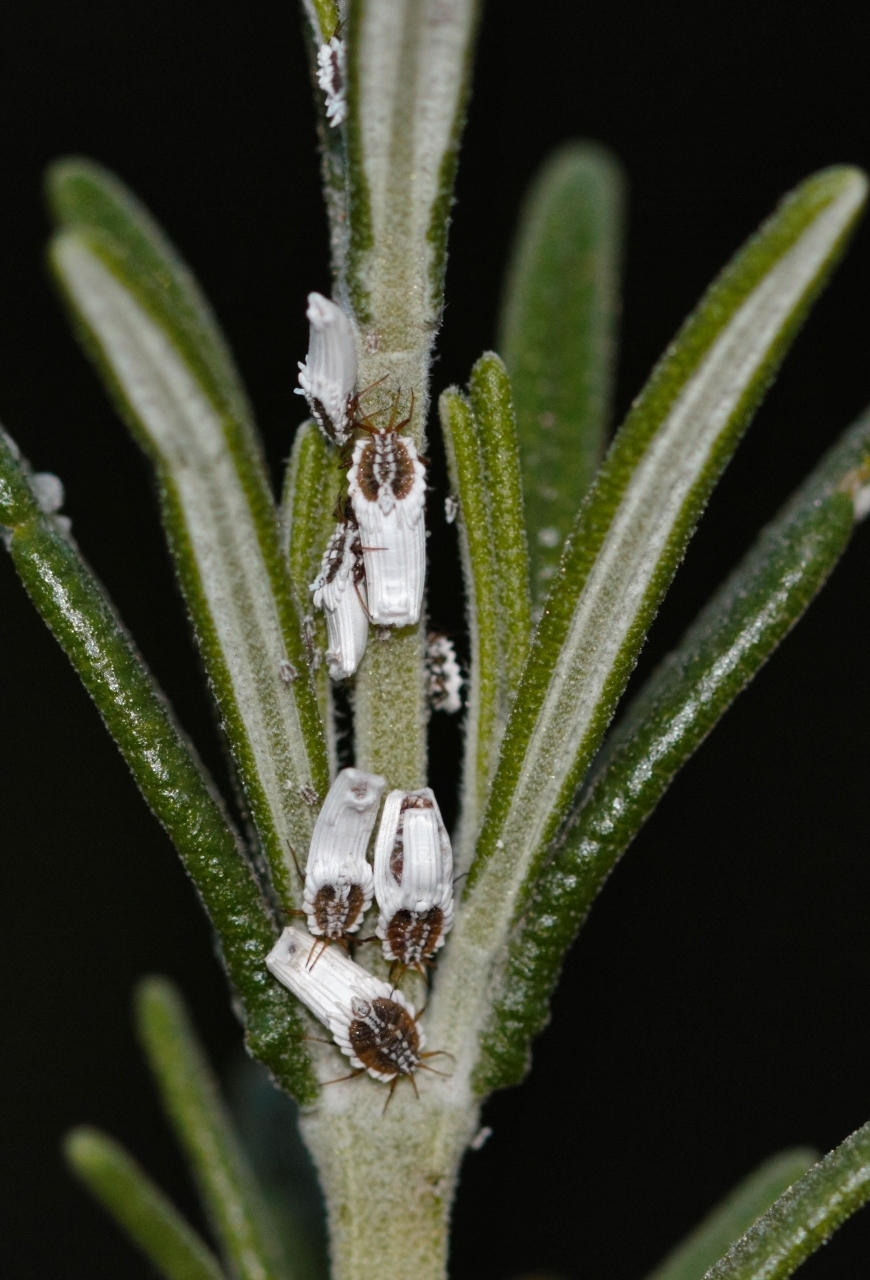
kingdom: Animalia
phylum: Arthropoda
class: Insecta
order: Hemiptera
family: Ortheziidae
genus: Insignorthezia
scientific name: Insignorthezia insignis
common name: Greenhouse orthezia
